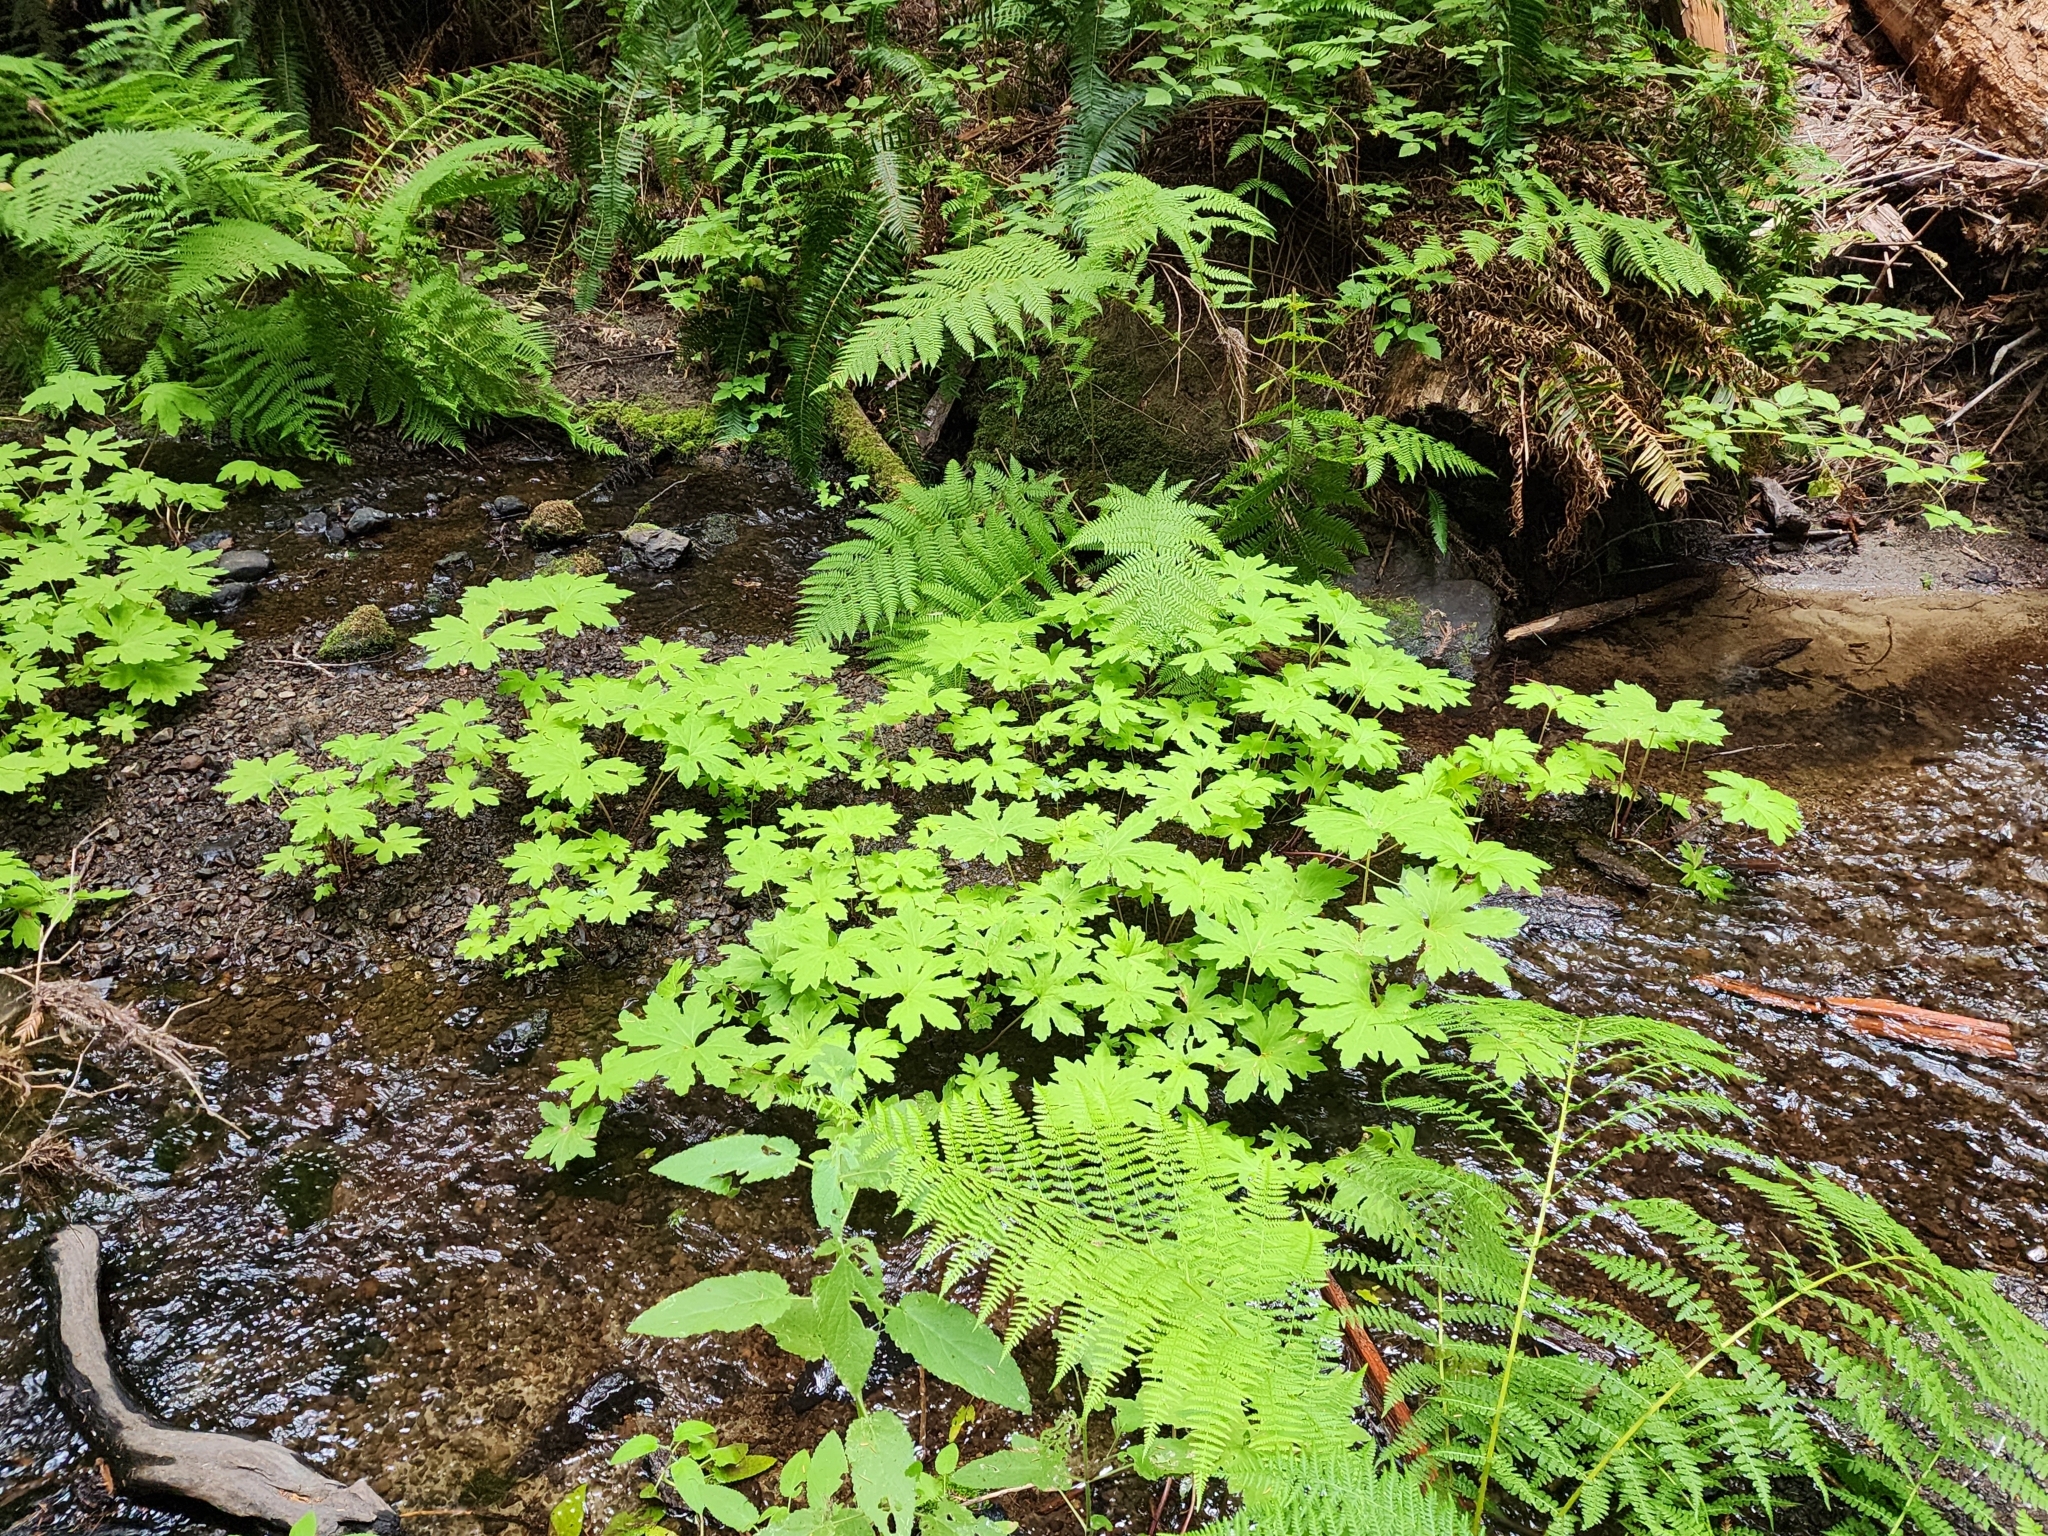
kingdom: Plantae
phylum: Tracheophyta
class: Magnoliopsida
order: Asterales
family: Asteraceae
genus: Petasites
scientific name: Petasites frigidus
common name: Arctic butterbur
